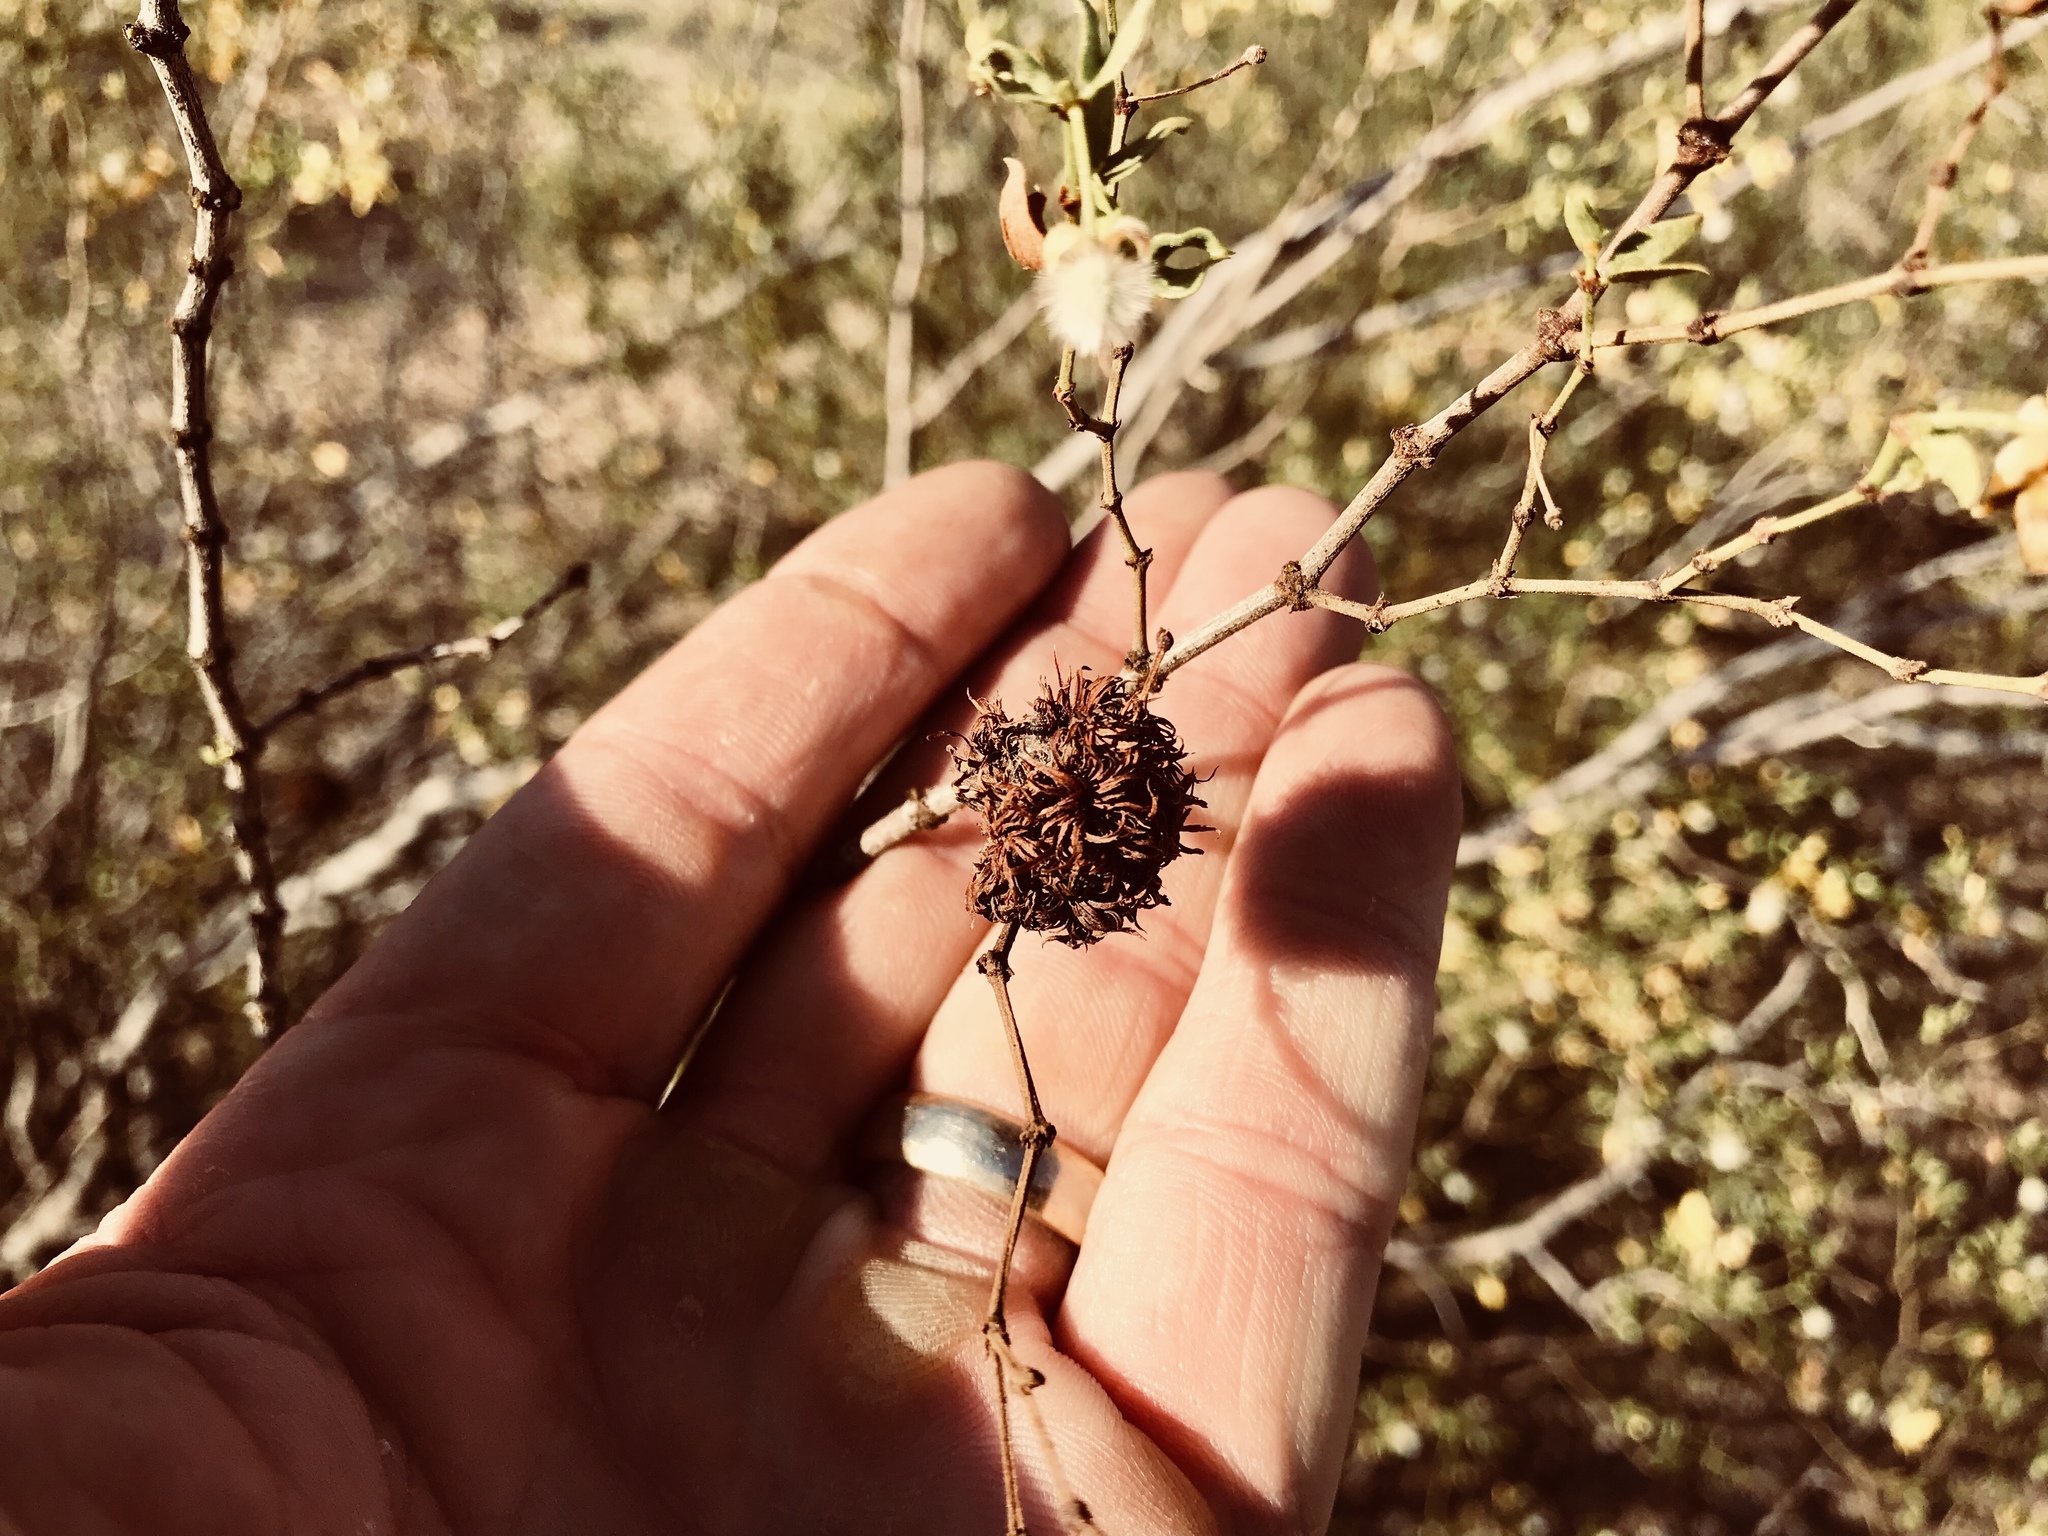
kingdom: Animalia
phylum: Arthropoda
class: Insecta
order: Diptera
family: Cecidomyiidae
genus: Asphondylia
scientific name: Asphondylia auripila
